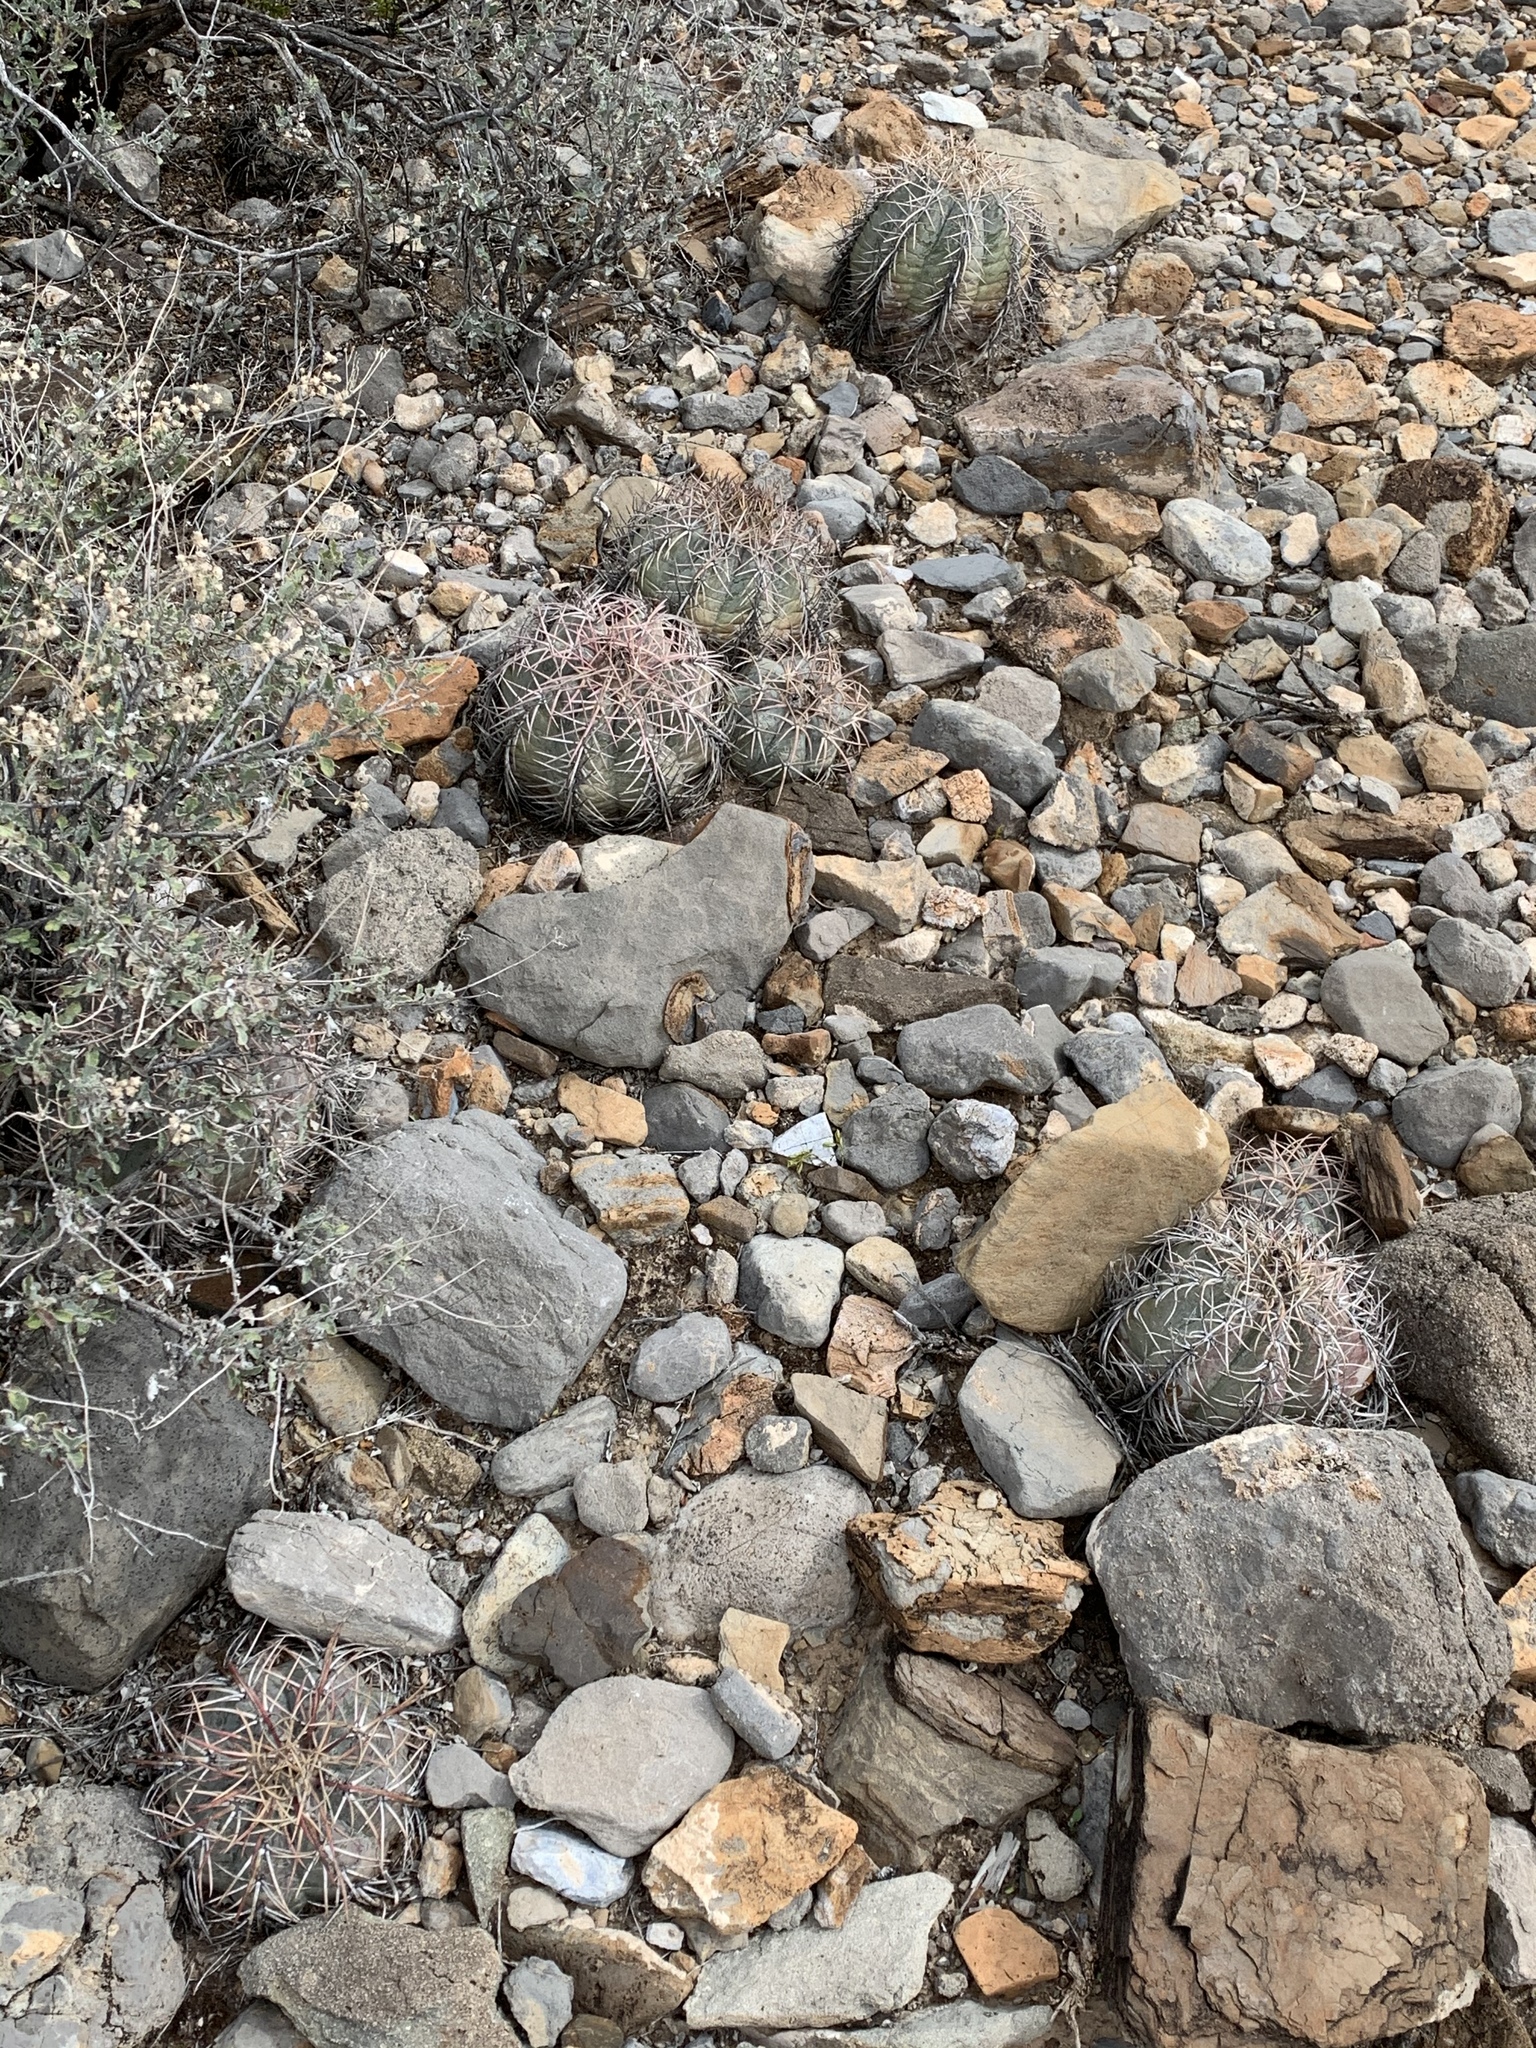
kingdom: Plantae
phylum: Tracheophyta
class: Magnoliopsida
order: Caryophyllales
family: Cactaceae
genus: Echinocactus
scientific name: Echinocactus horizonthalonius
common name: Devilshead
